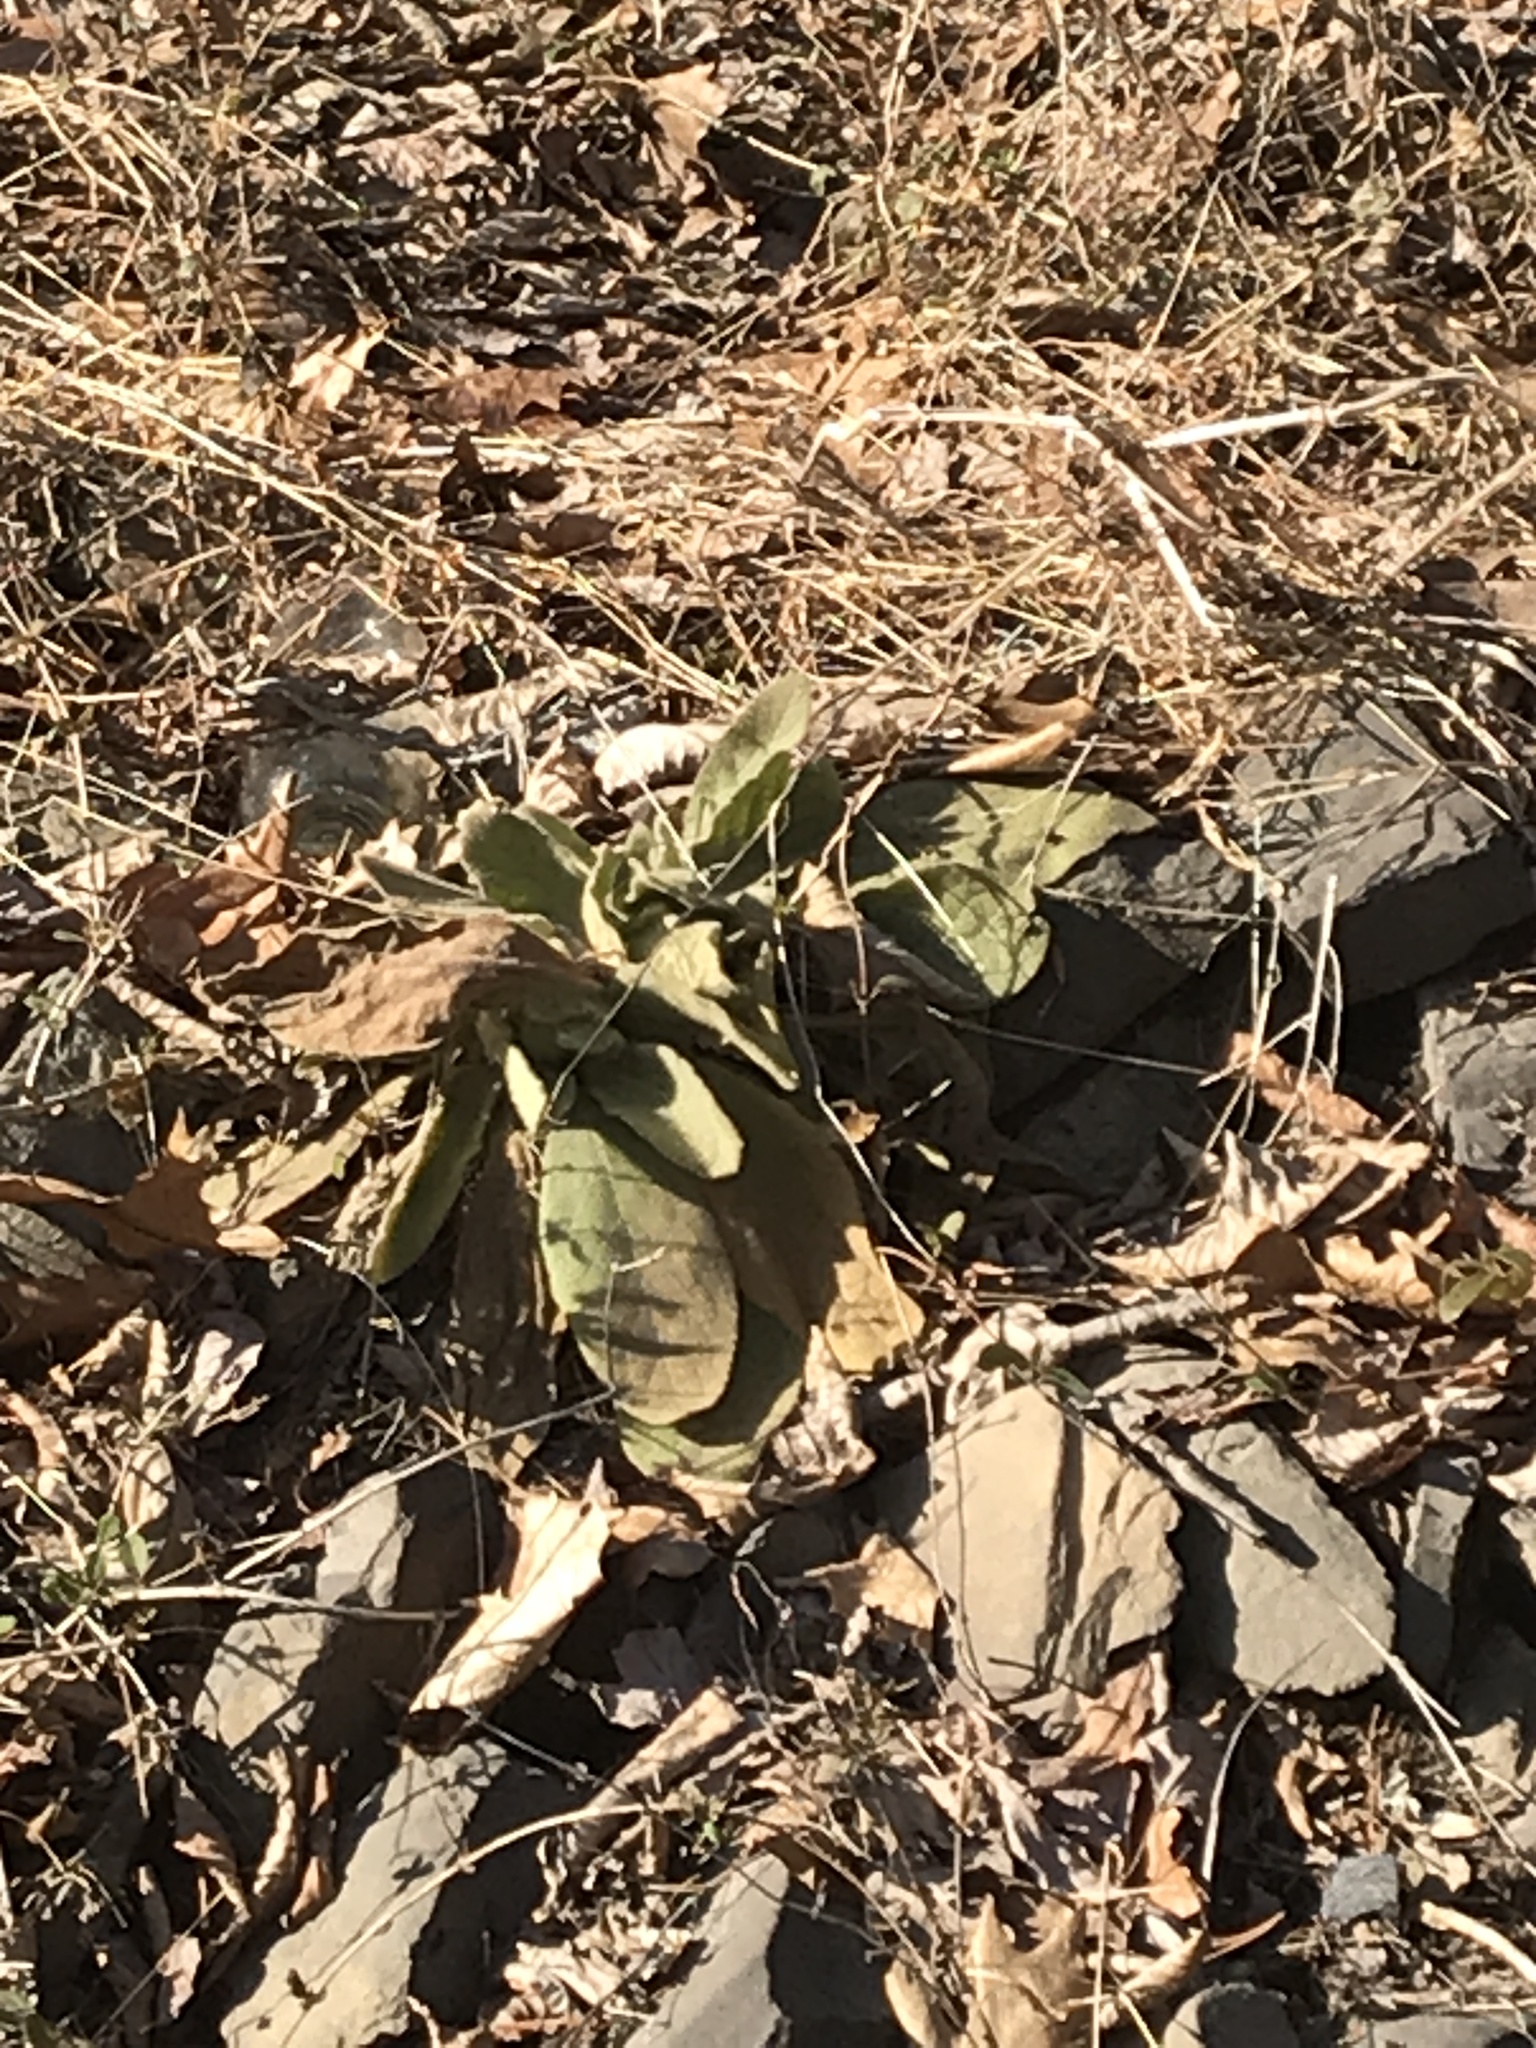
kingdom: Plantae
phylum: Tracheophyta
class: Magnoliopsida
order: Lamiales
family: Scrophulariaceae
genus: Verbascum
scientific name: Verbascum thapsus
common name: Common mullein
